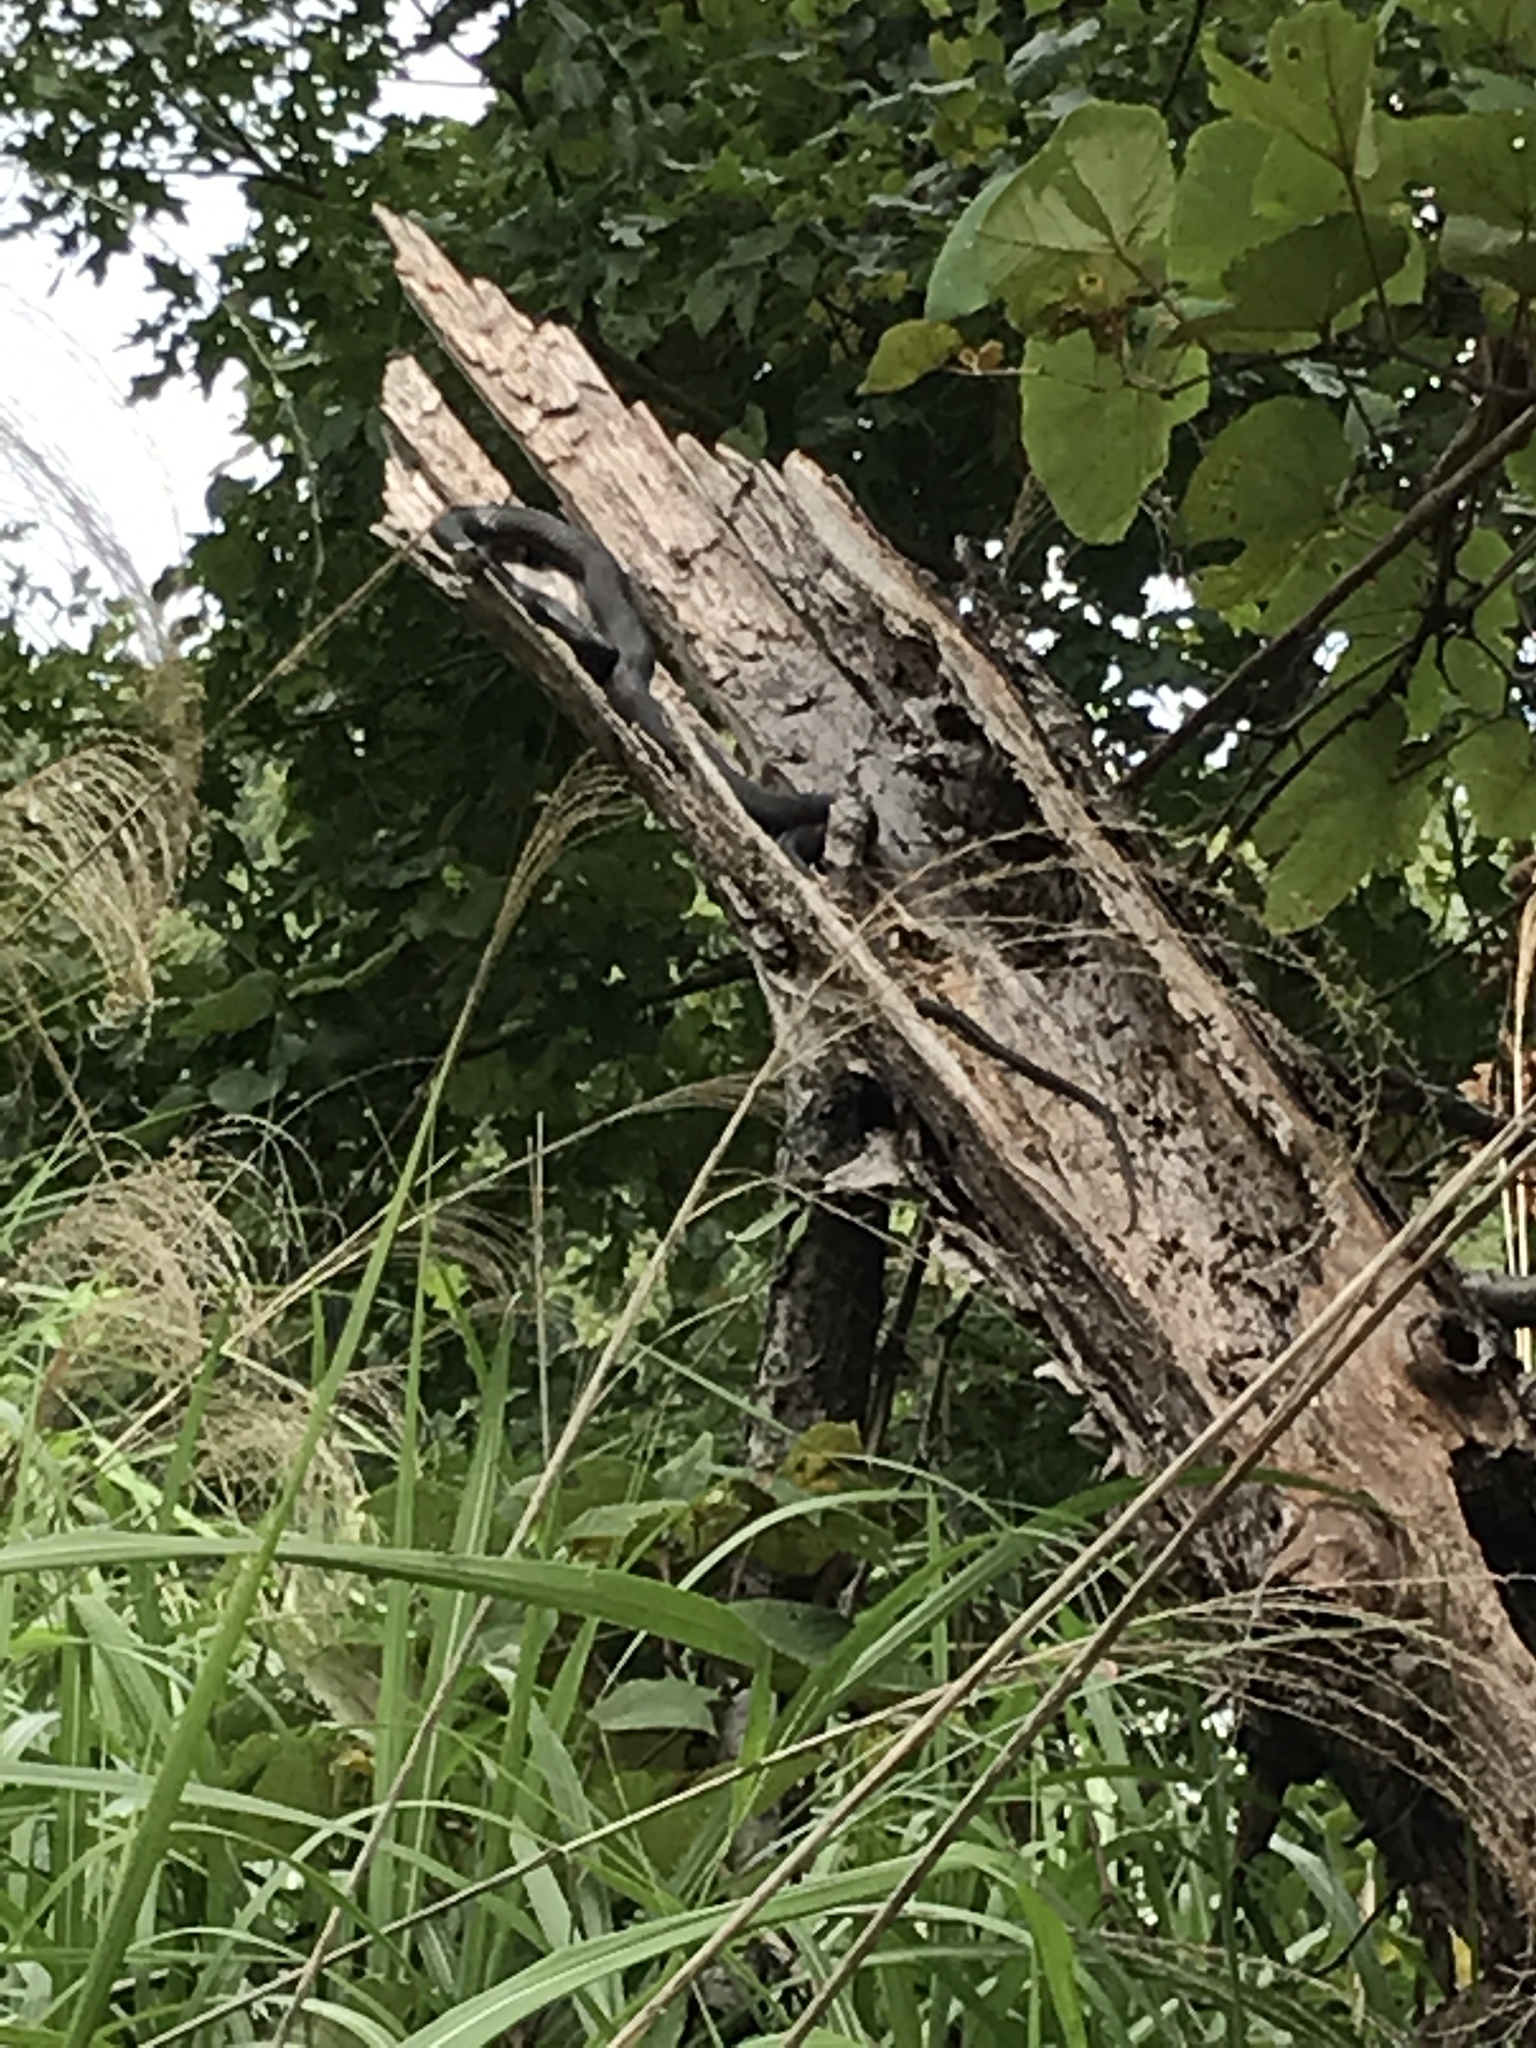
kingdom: Animalia
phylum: Chordata
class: Squamata
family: Colubridae
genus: Coluber
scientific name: Coluber constrictor
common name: Eastern racer
